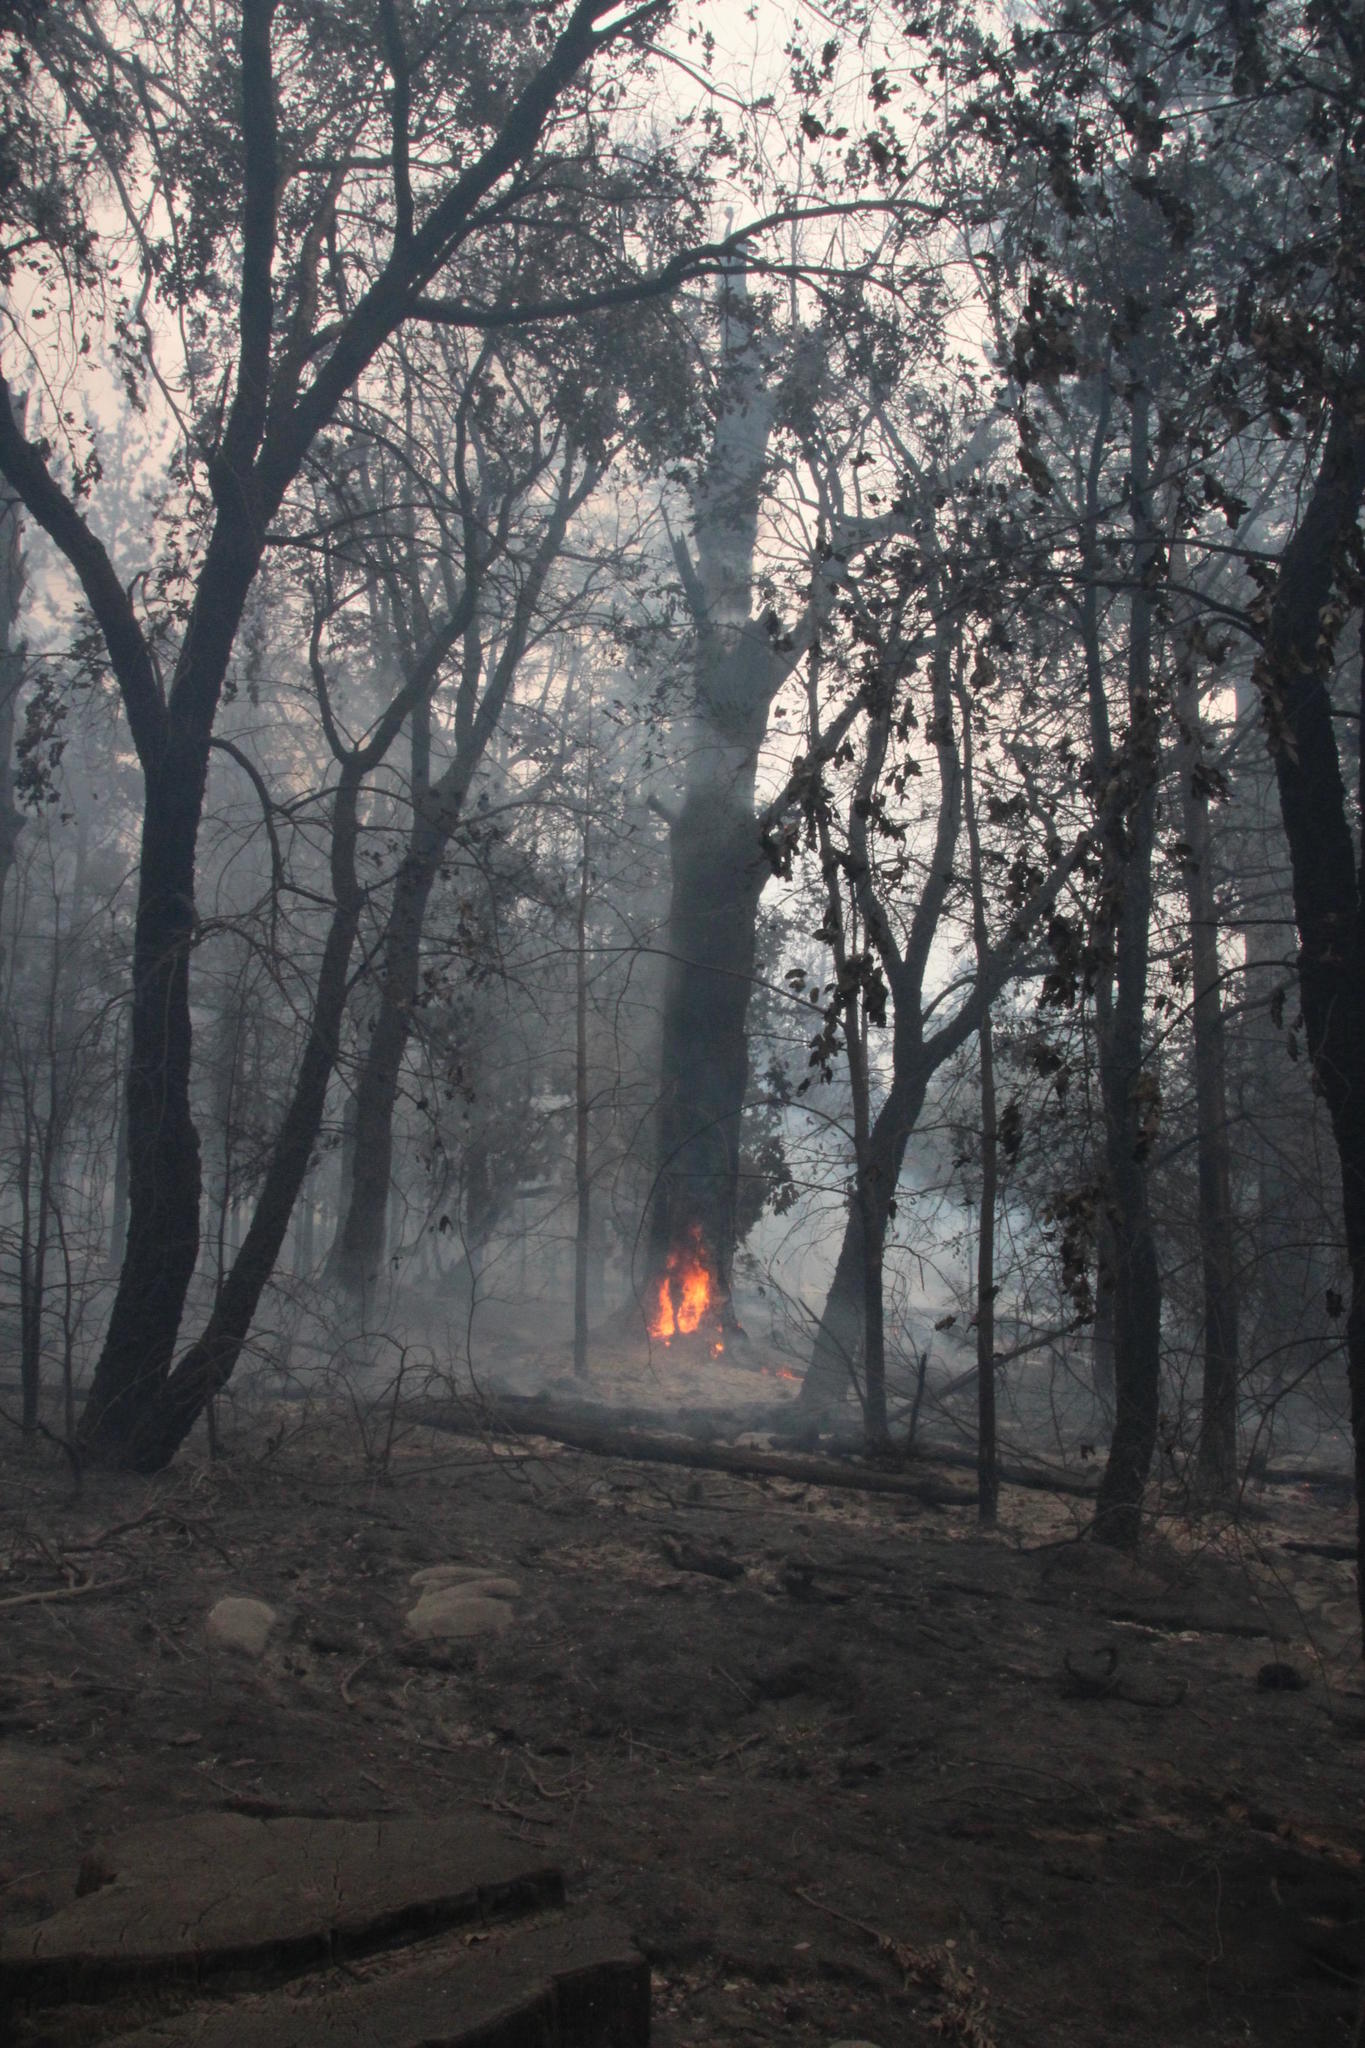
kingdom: Plantae
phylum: Tracheophyta
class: Pinopsida
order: Pinales
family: Pinaceae
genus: Pinus
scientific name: Pinus radiata
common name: Monterey pine
